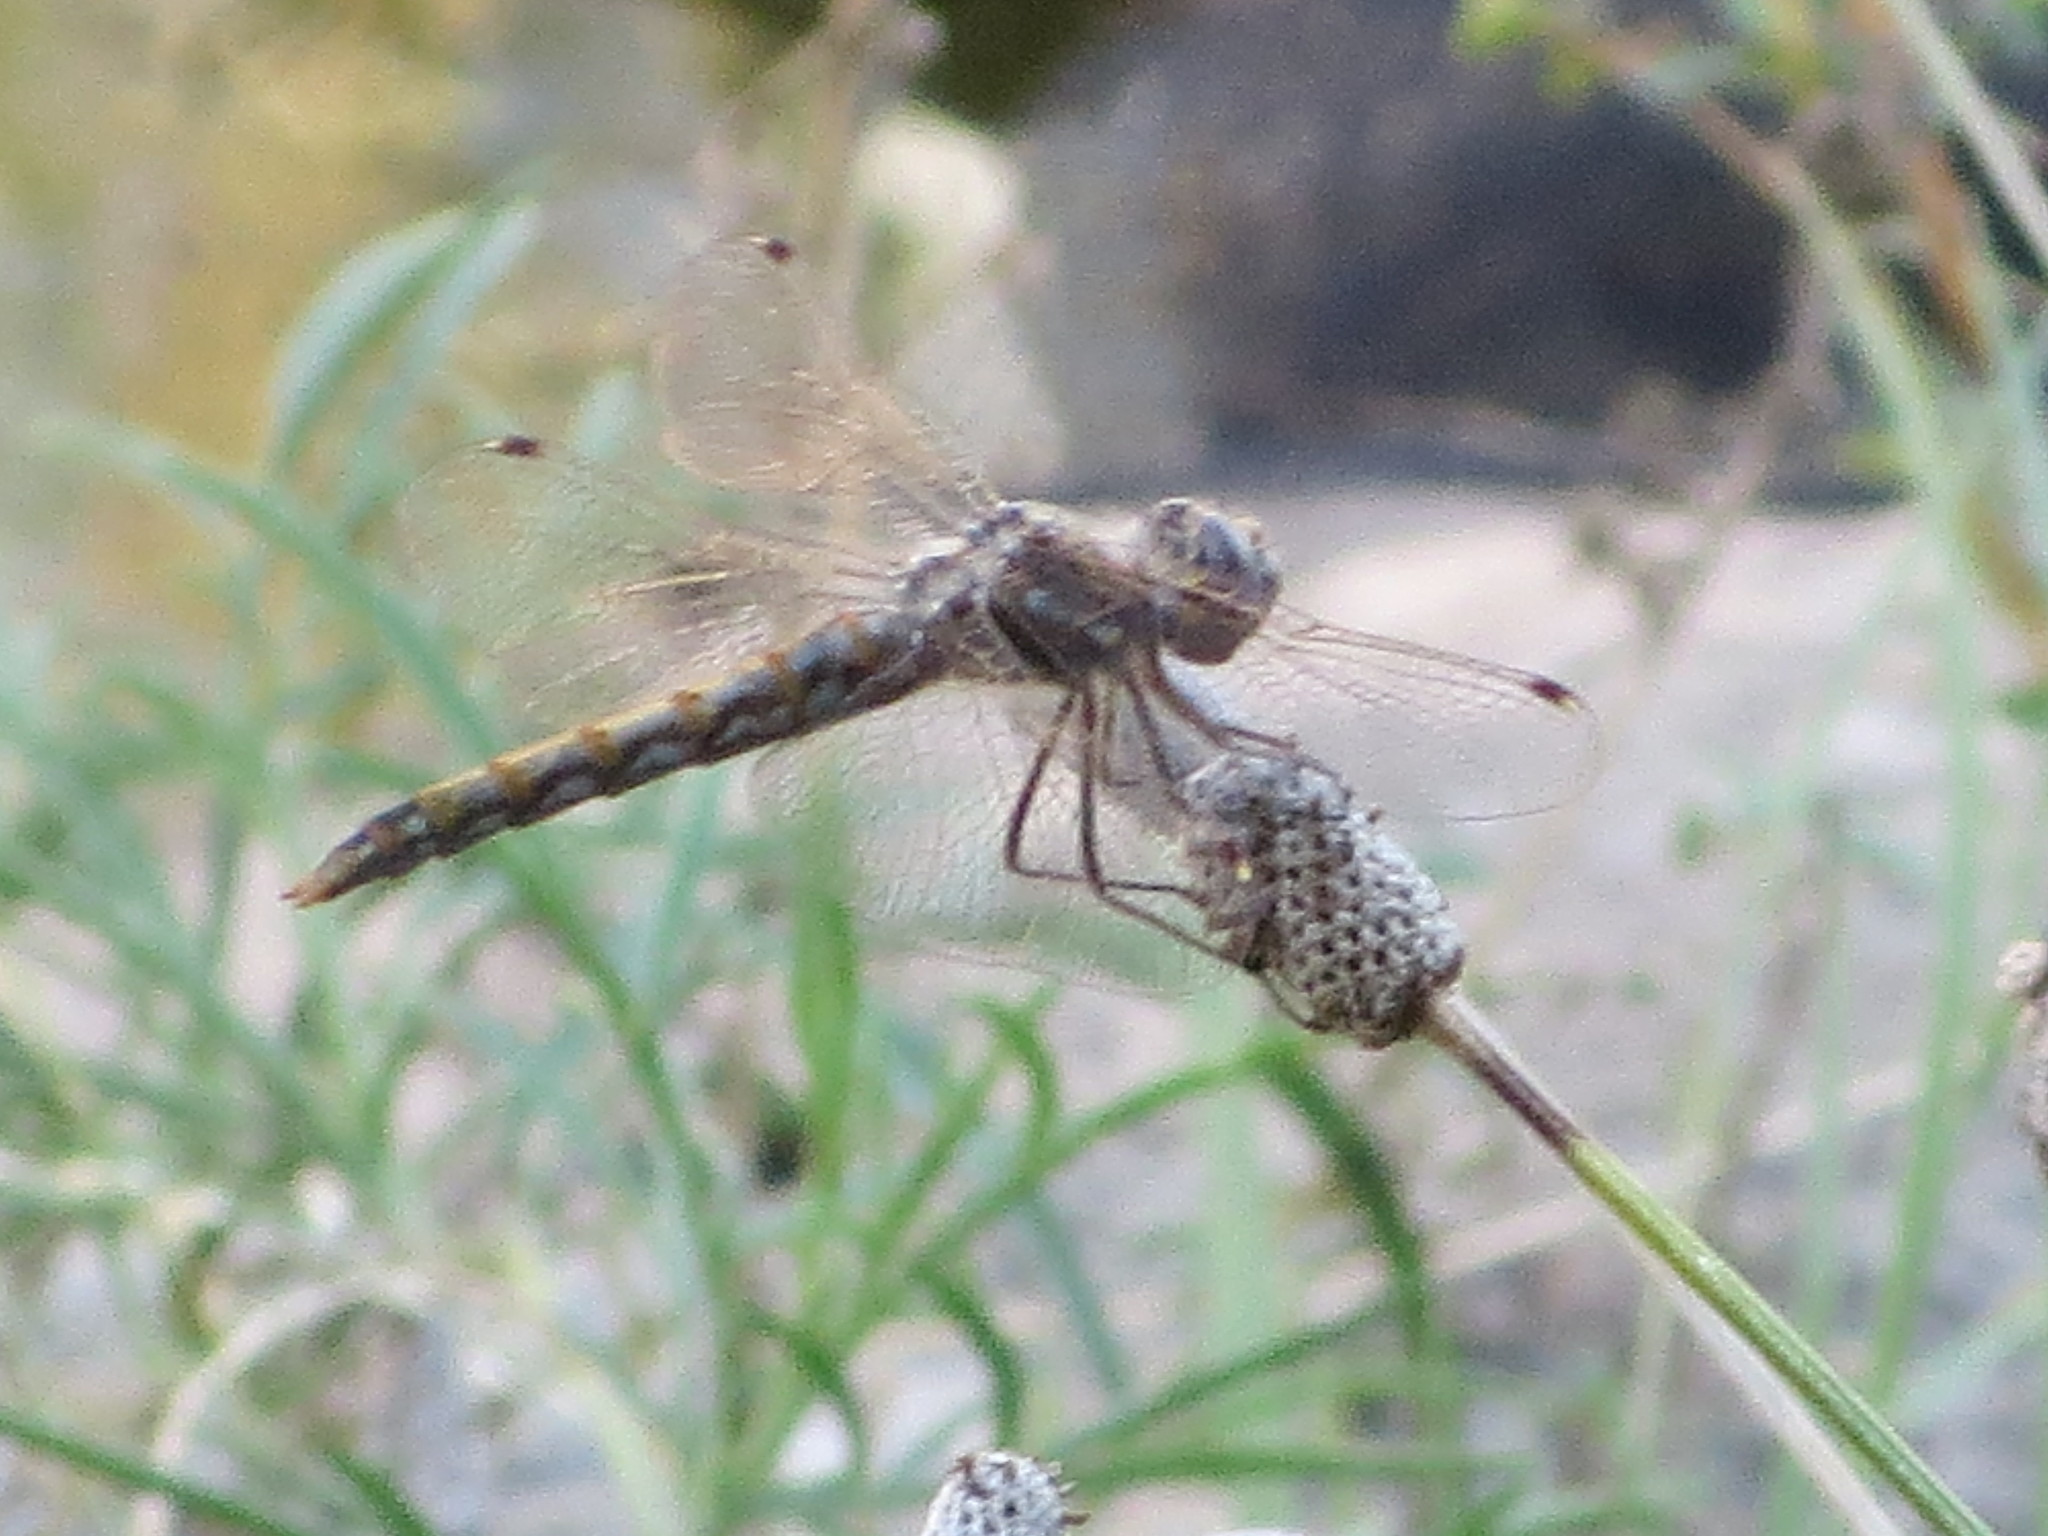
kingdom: Animalia
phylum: Arthropoda
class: Insecta
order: Odonata
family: Libellulidae
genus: Sympetrum
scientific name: Sympetrum corruptum
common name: Variegated meadowhawk
